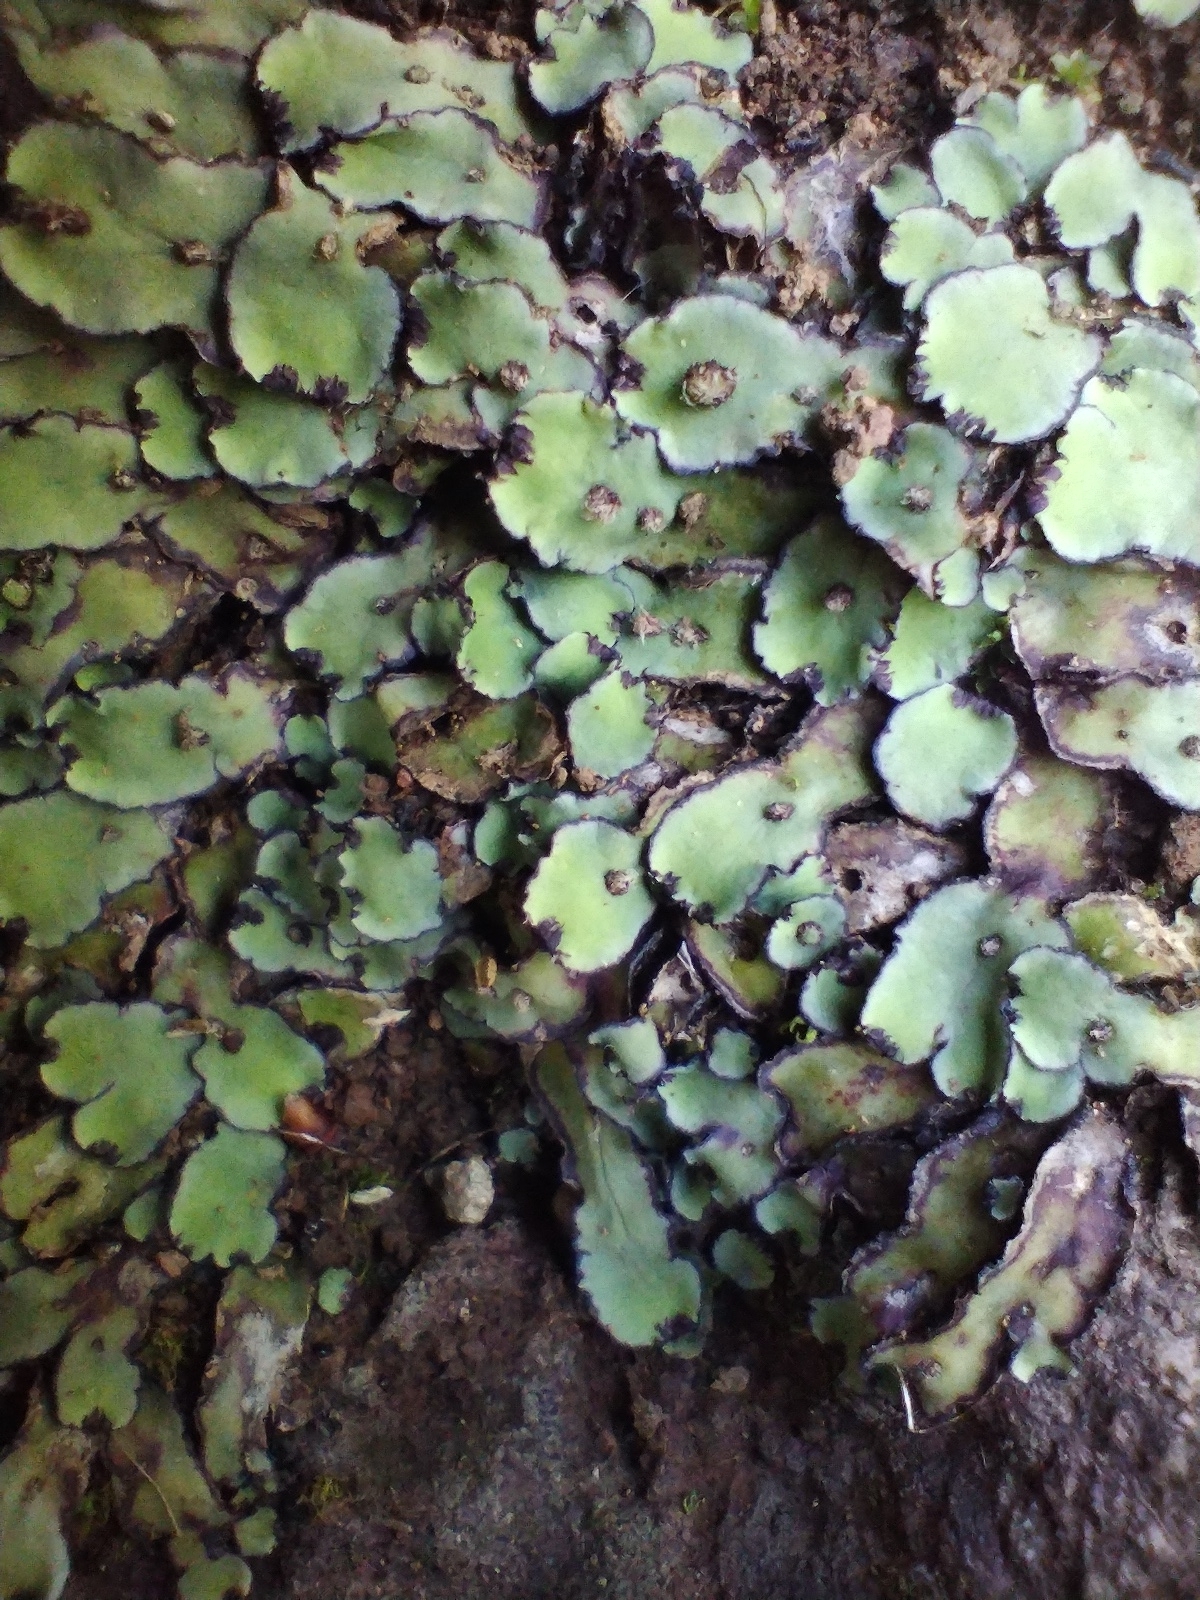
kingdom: Plantae
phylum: Marchantiophyta
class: Marchantiopsida
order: Marchantiales
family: Aytoniaceae
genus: Plagiochasma
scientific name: Plagiochasma rupestre
